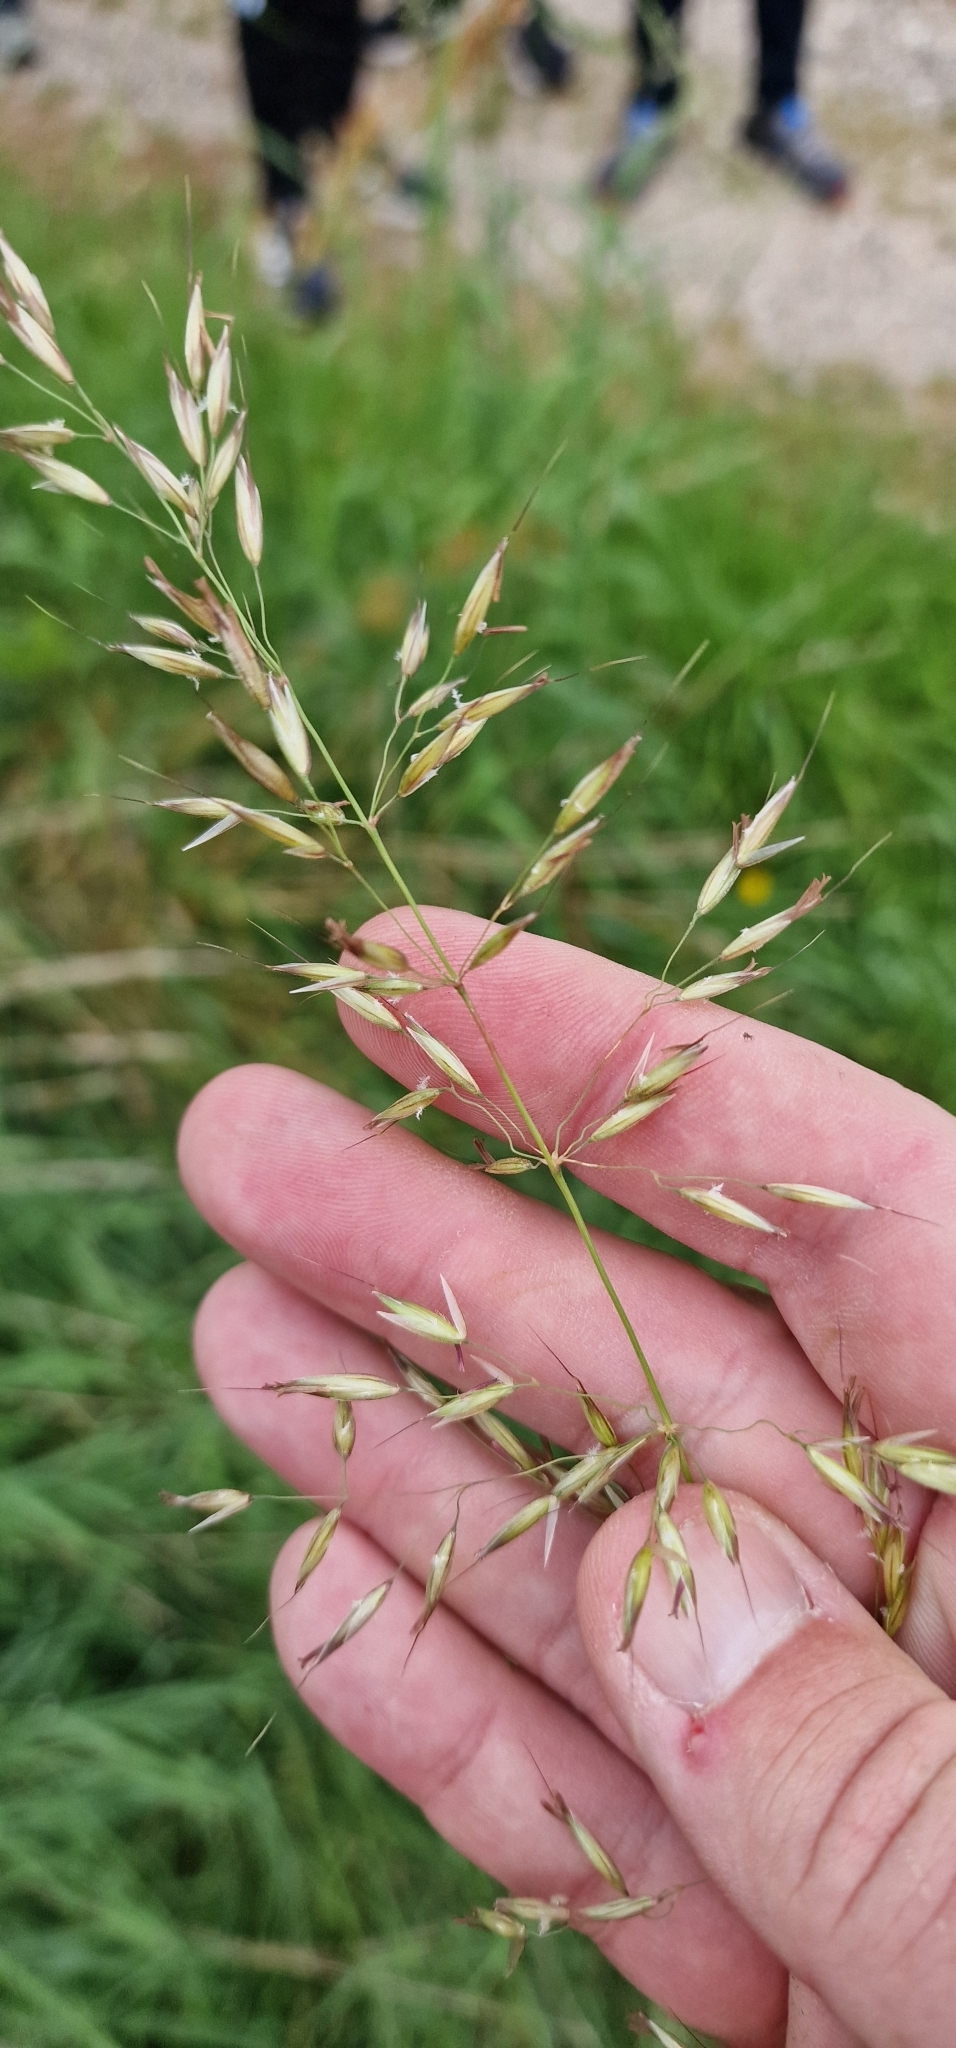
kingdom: Plantae
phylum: Tracheophyta
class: Liliopsida
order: Poales
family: Poaceae
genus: Arrhenatherum
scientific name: Arrhenatherum elatius
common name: Tall oatgrass
